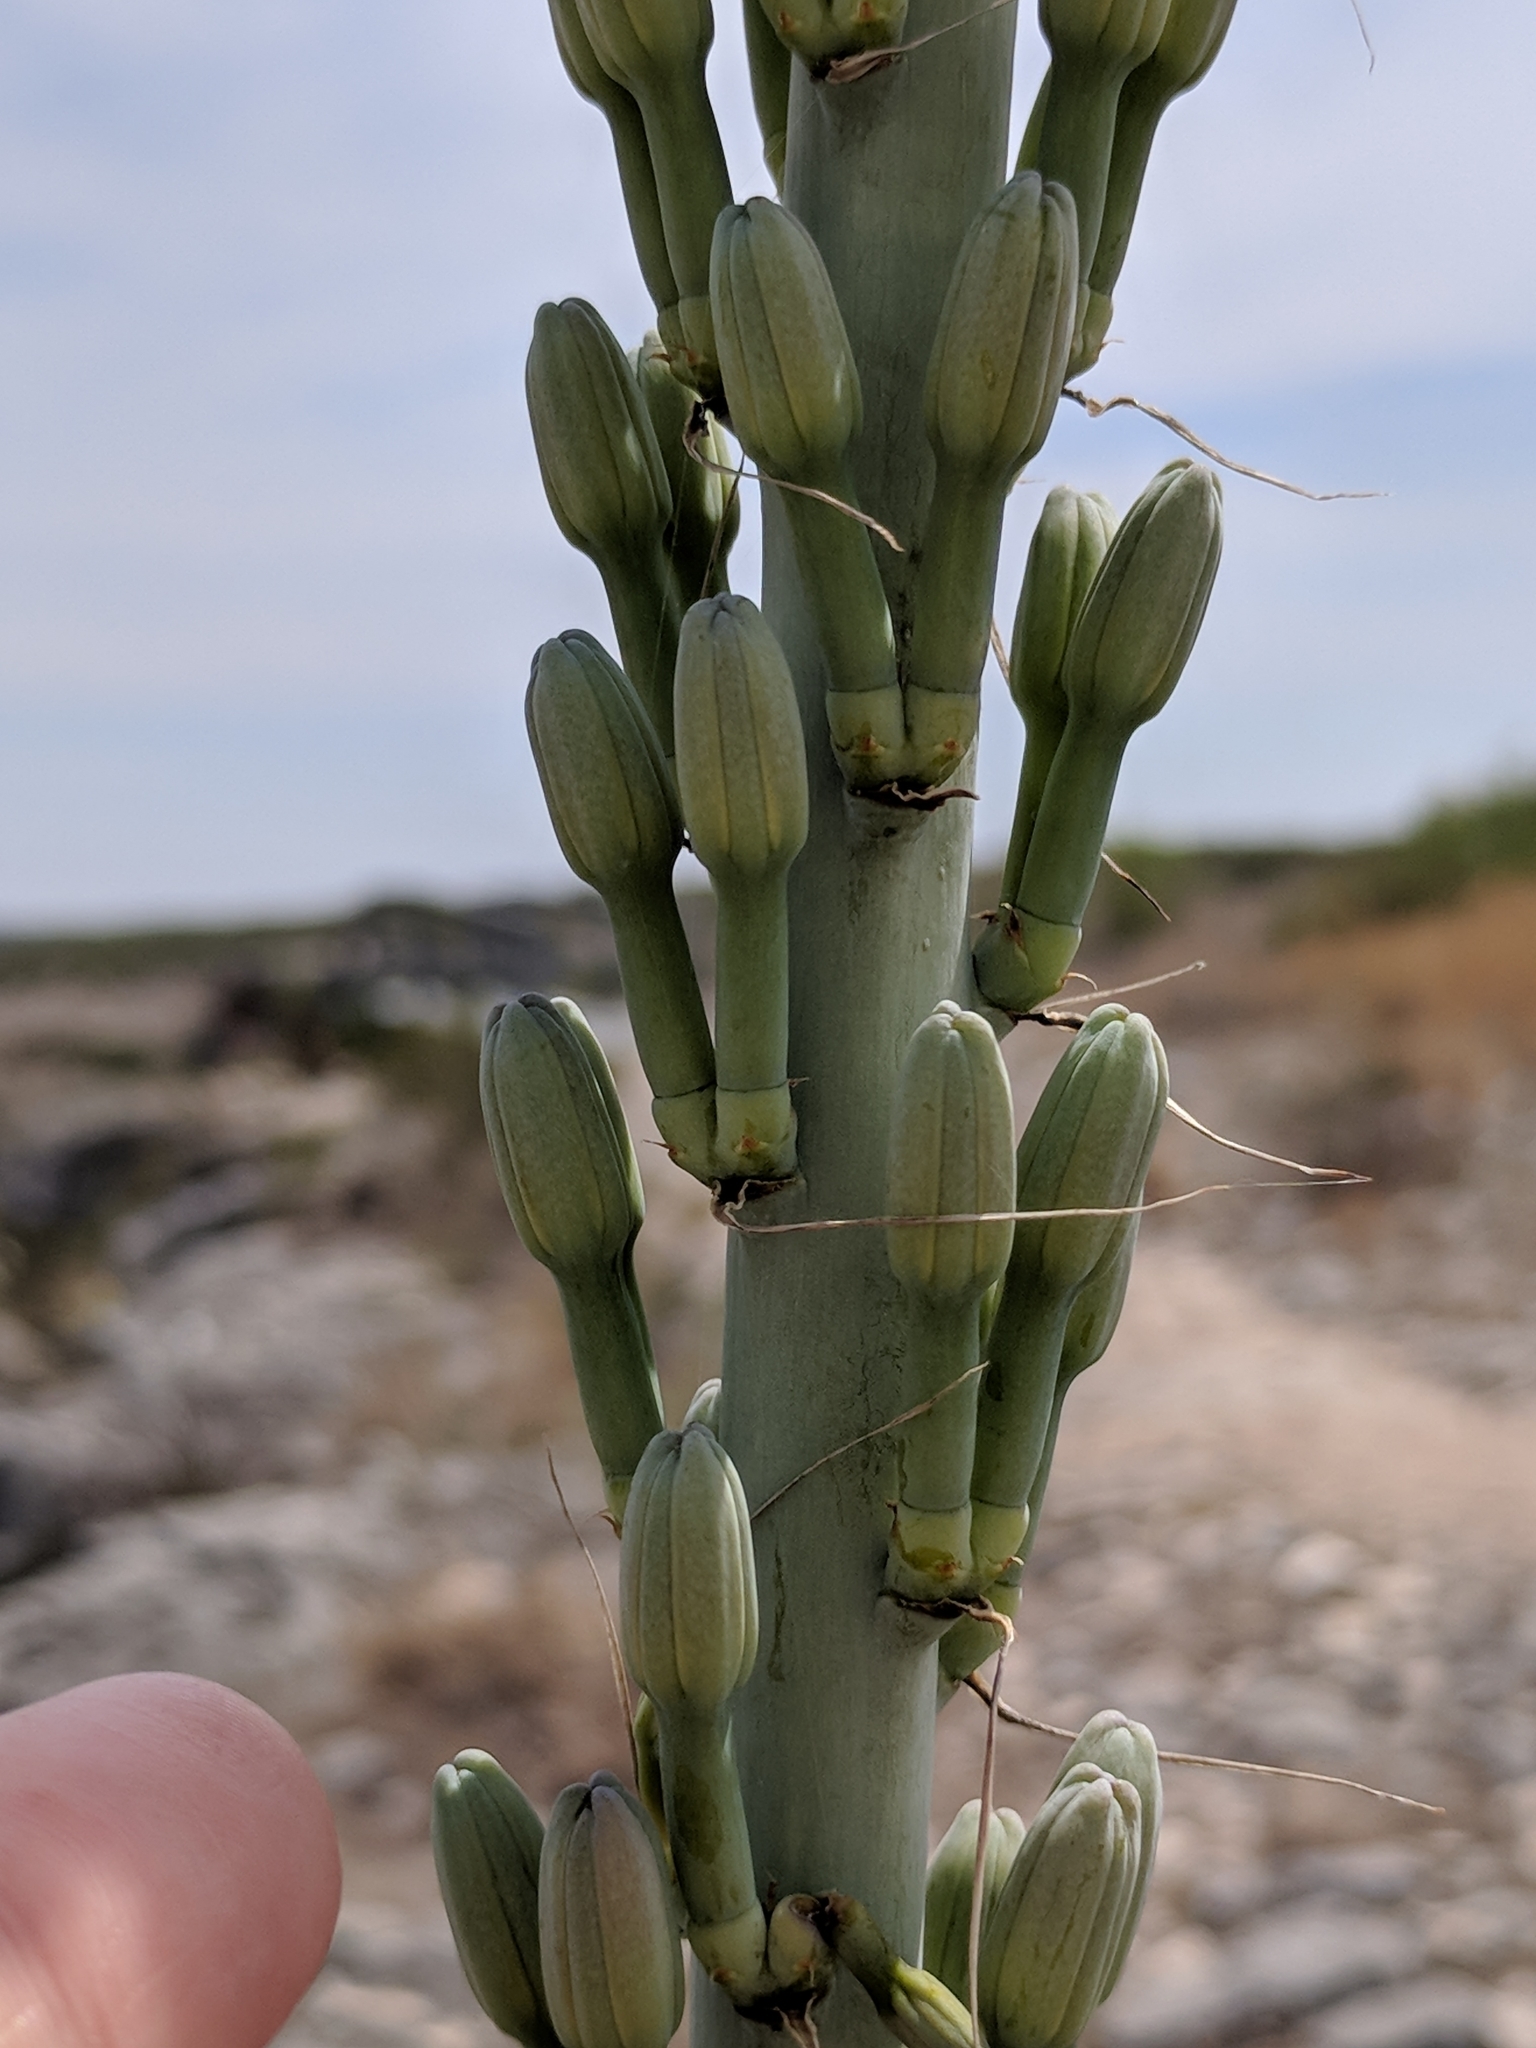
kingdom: Plantae
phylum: Tracheophyta
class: Liliopsida
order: Asparagales
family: Asparagaceae
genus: Agave
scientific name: Agave lechuguilla
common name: Lecheguilla agave
